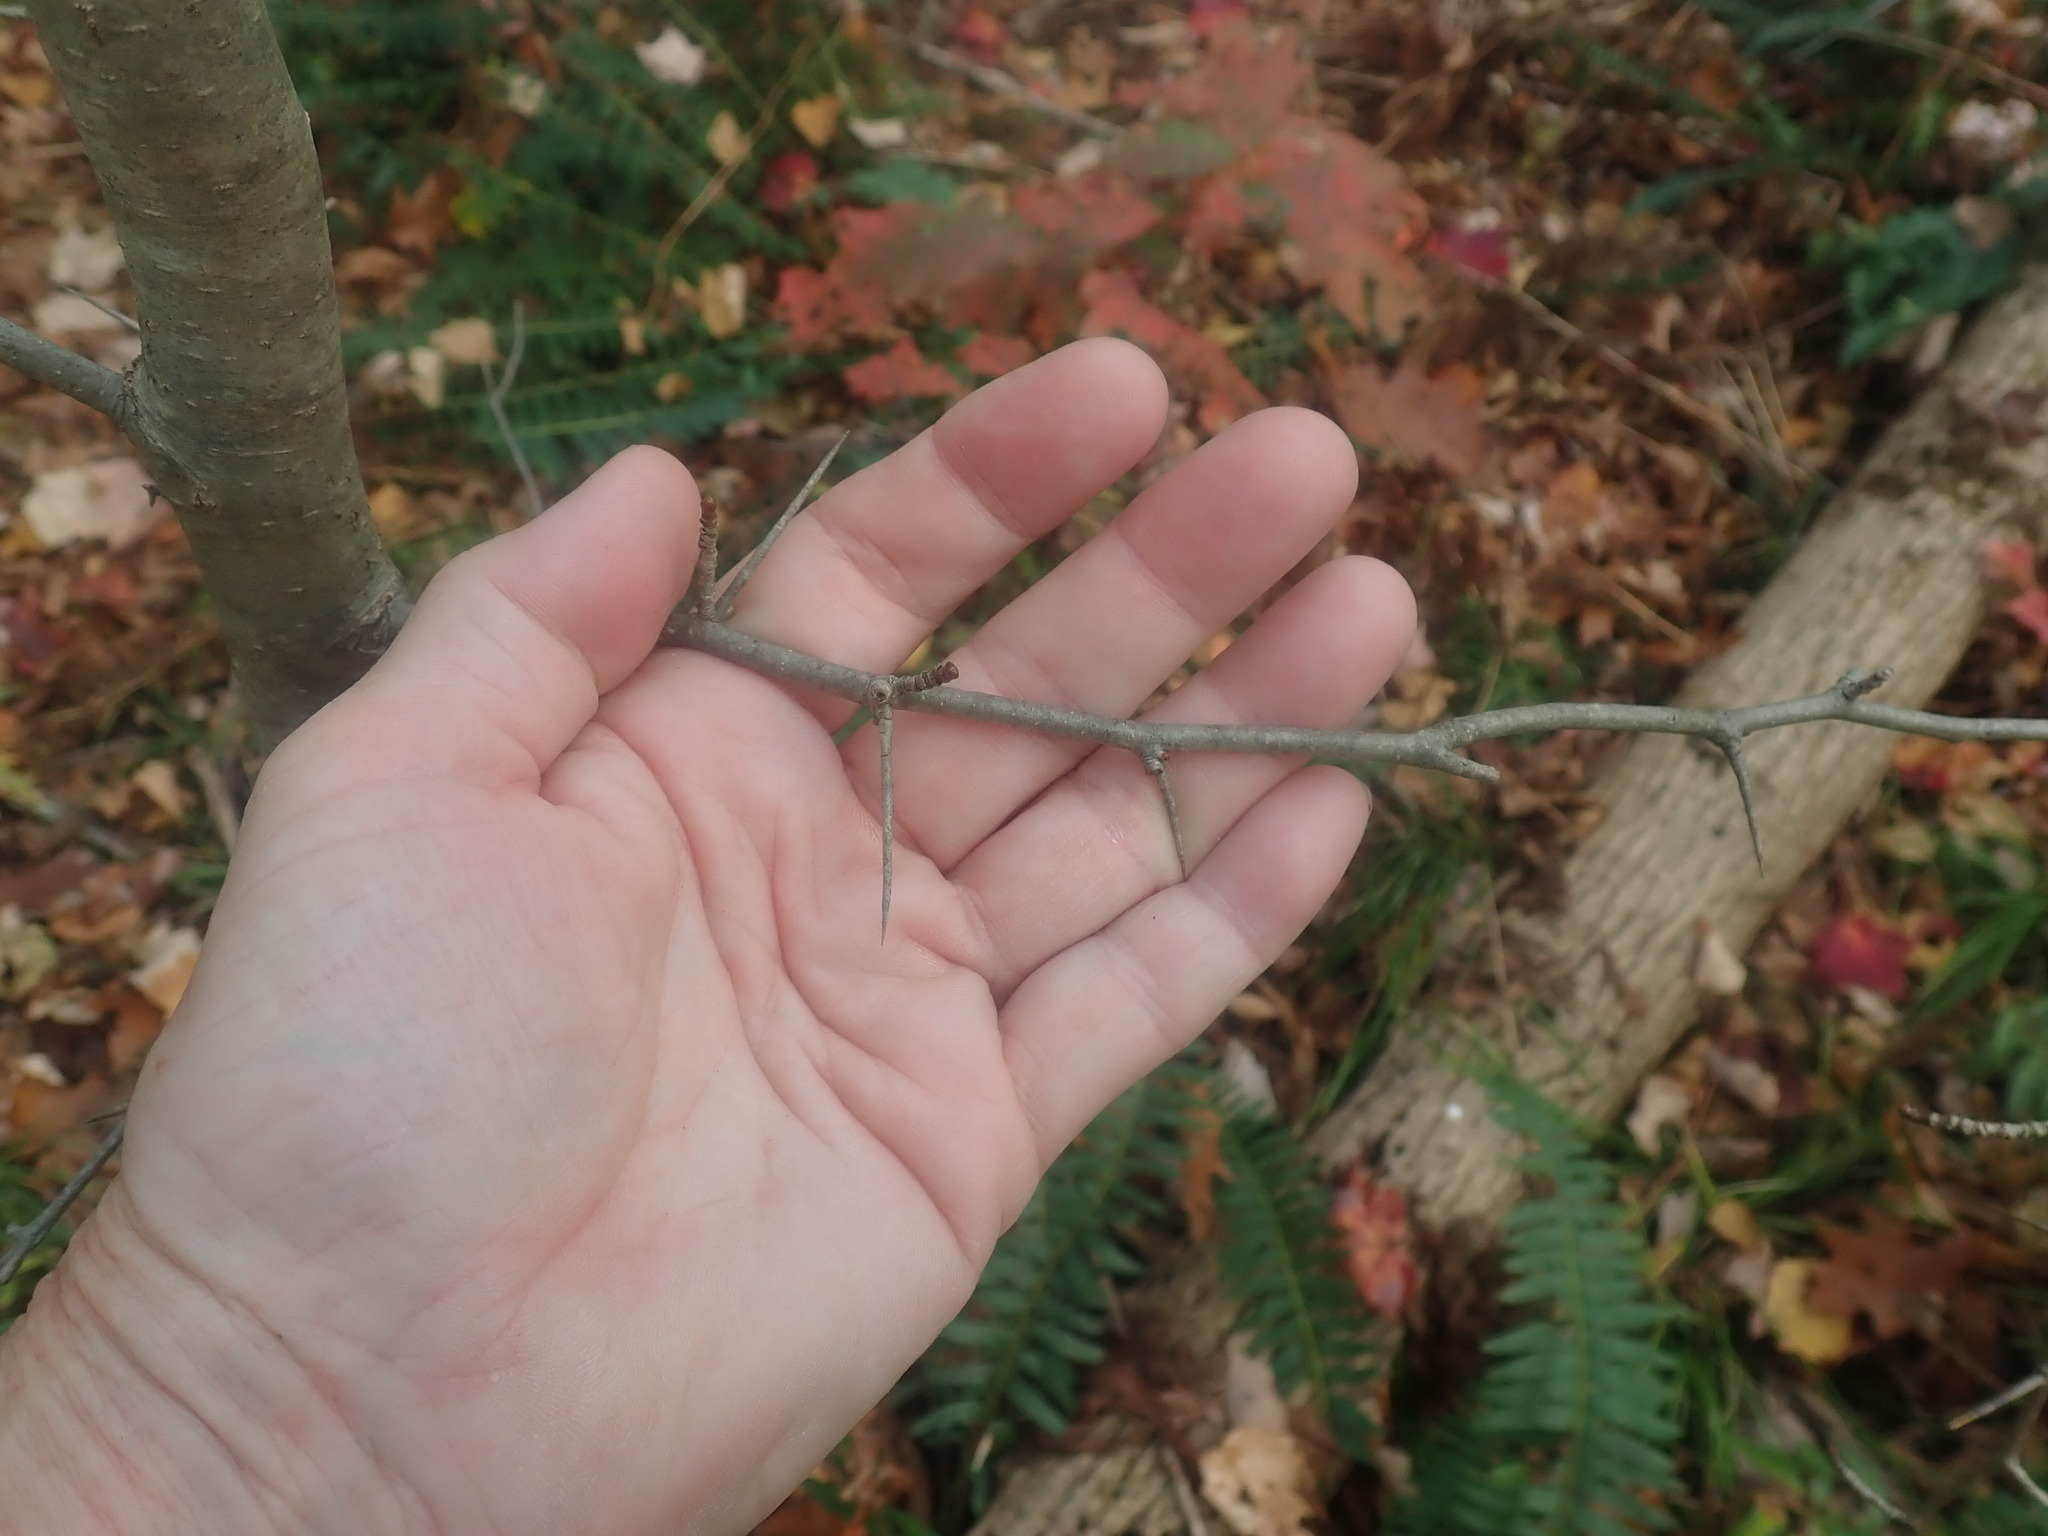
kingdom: Plantae
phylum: Tracheophyta
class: Magnoliopsida
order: Rosales
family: Rosaceae
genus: Crataegus
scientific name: Crataegus
